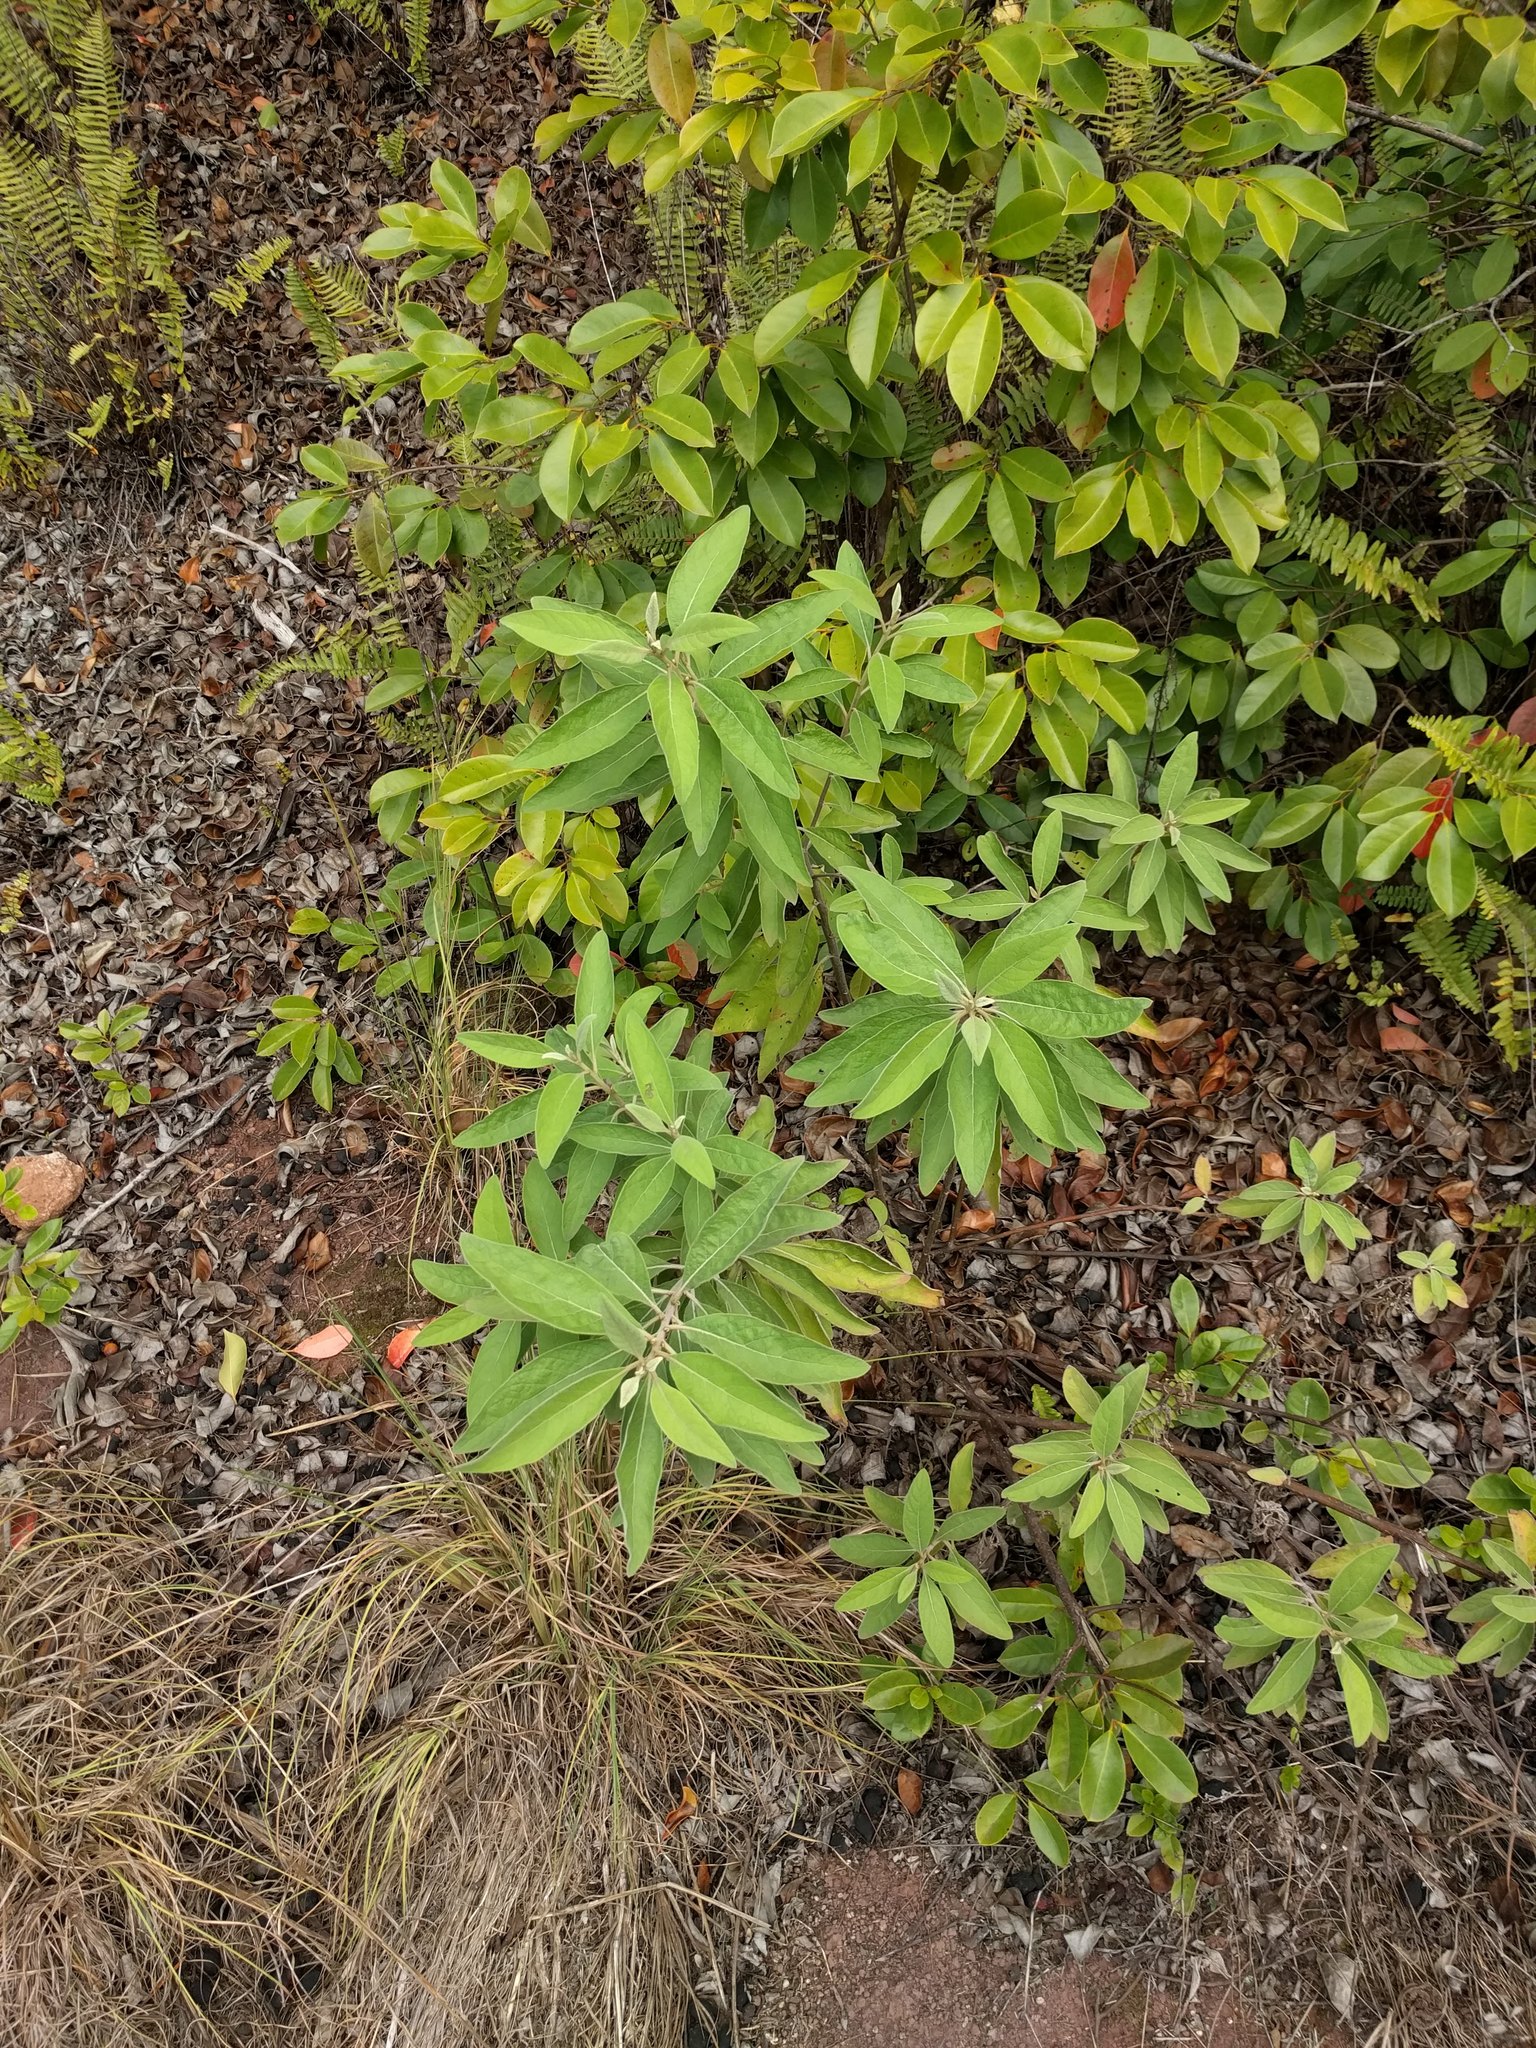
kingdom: Plantae
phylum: Tracheophyta
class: Magnoliopsida
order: Asterales
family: Asteraceae
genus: Pluchea
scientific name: Pluchea carolinensis
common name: Marsh fleabane
